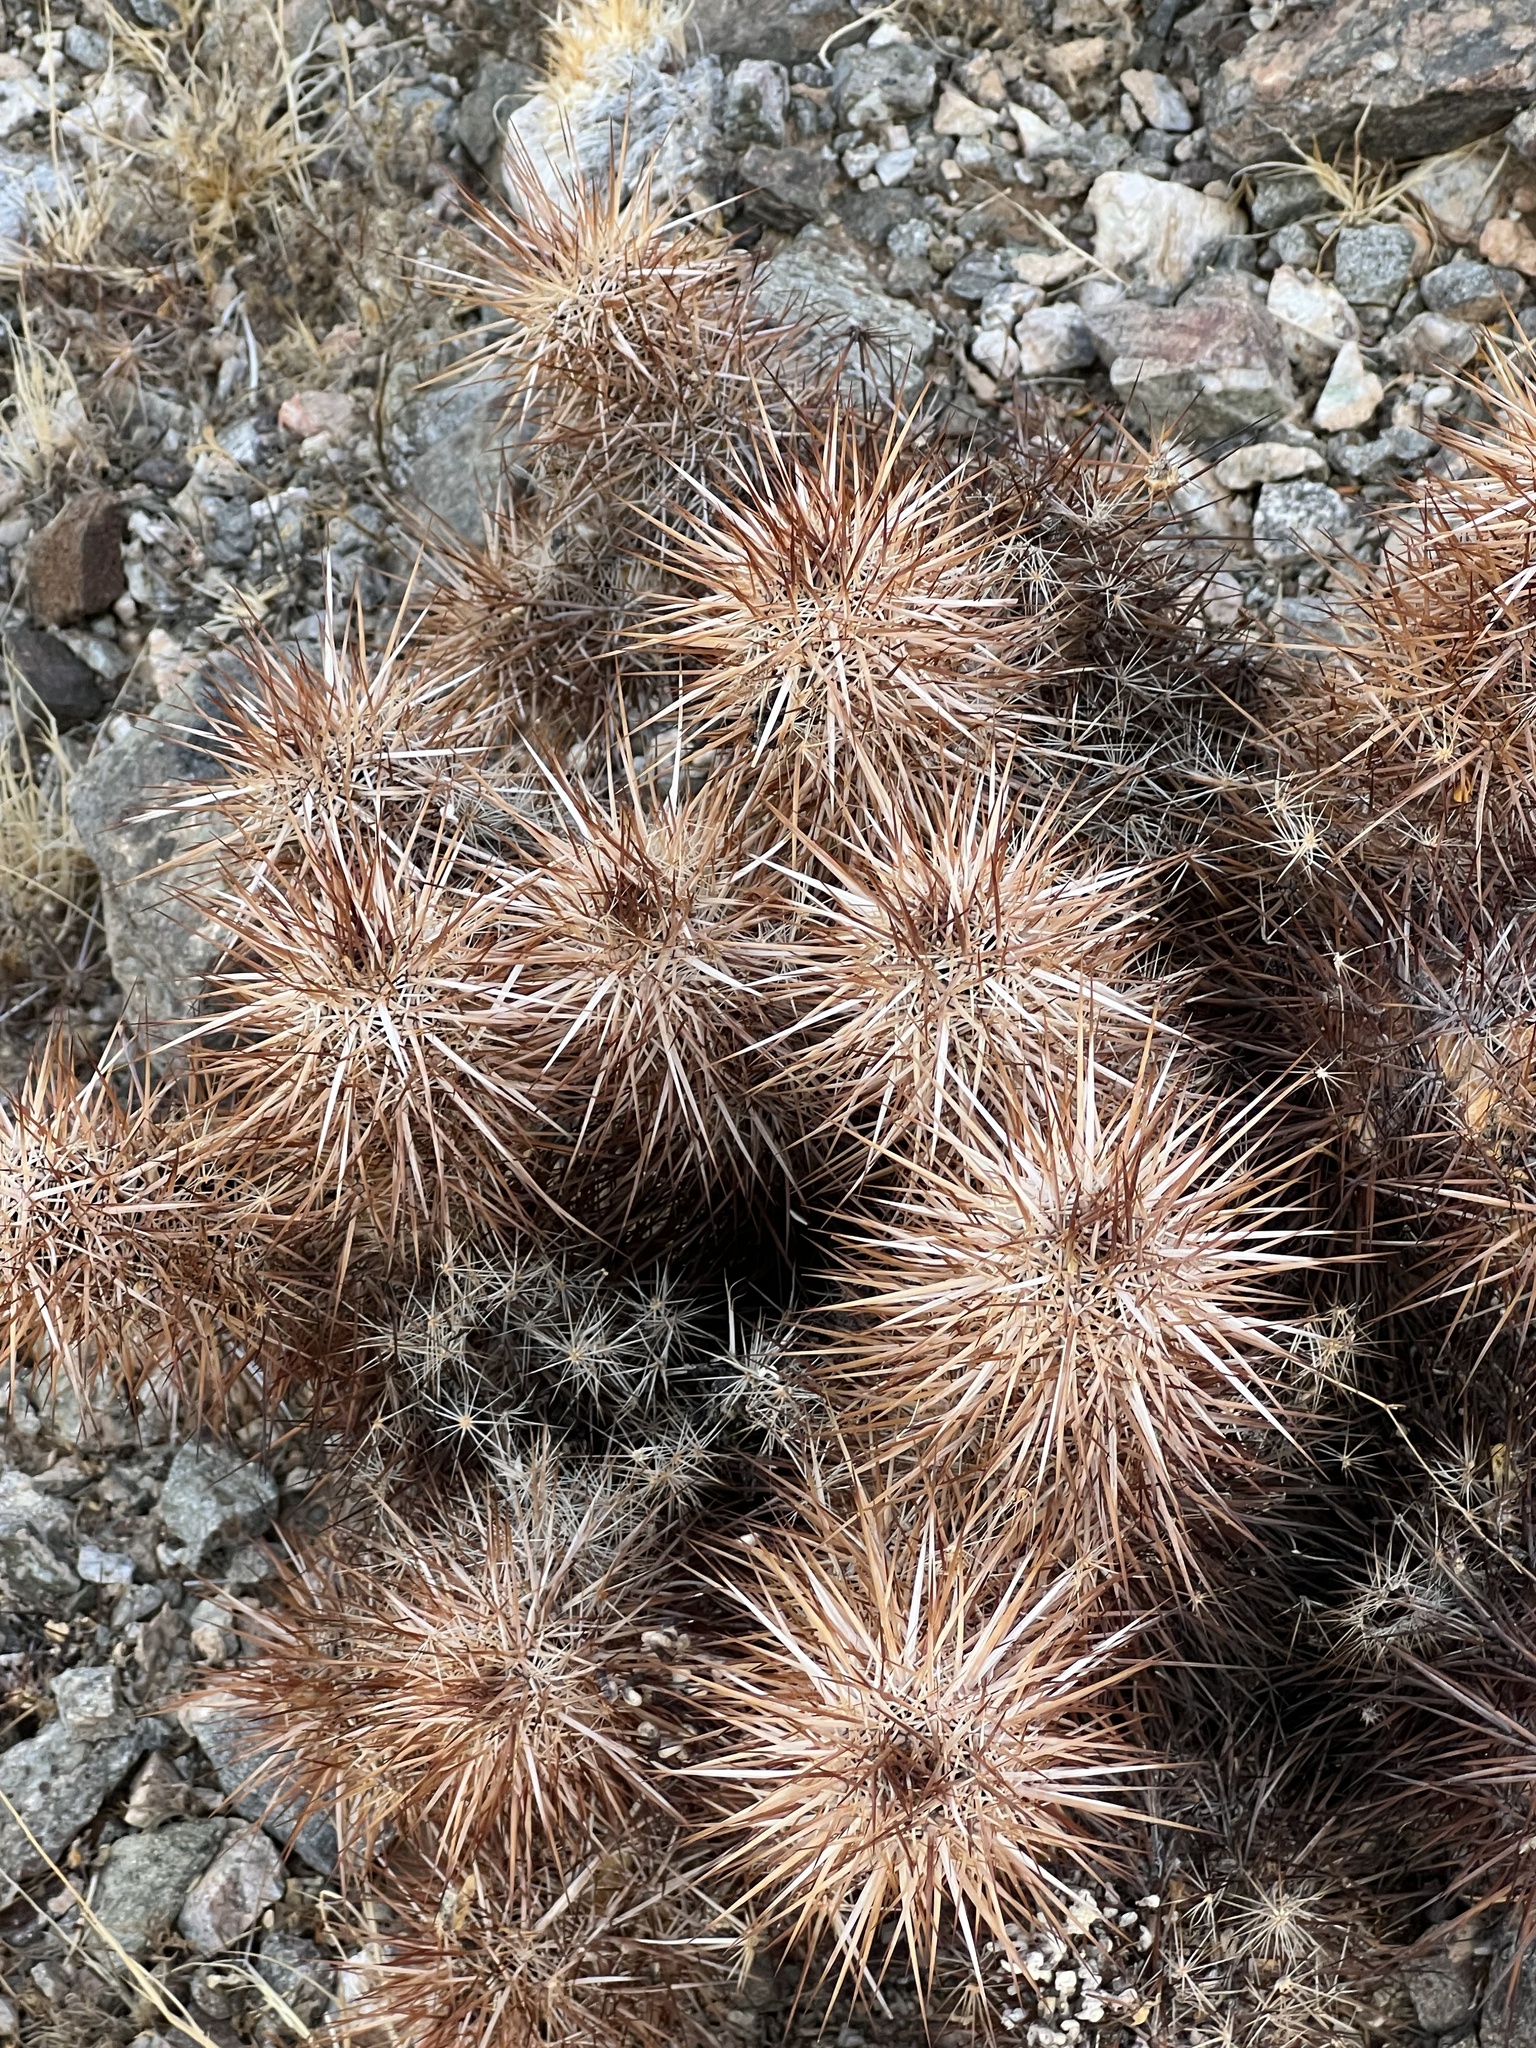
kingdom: Plantae
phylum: Tracheophyta
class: Magnoliopsida
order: Caryophyllales
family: Cactaceae
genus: Echinocereus
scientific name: Echinocereus engelmannii
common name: Engelmann's hedgehog cactus
